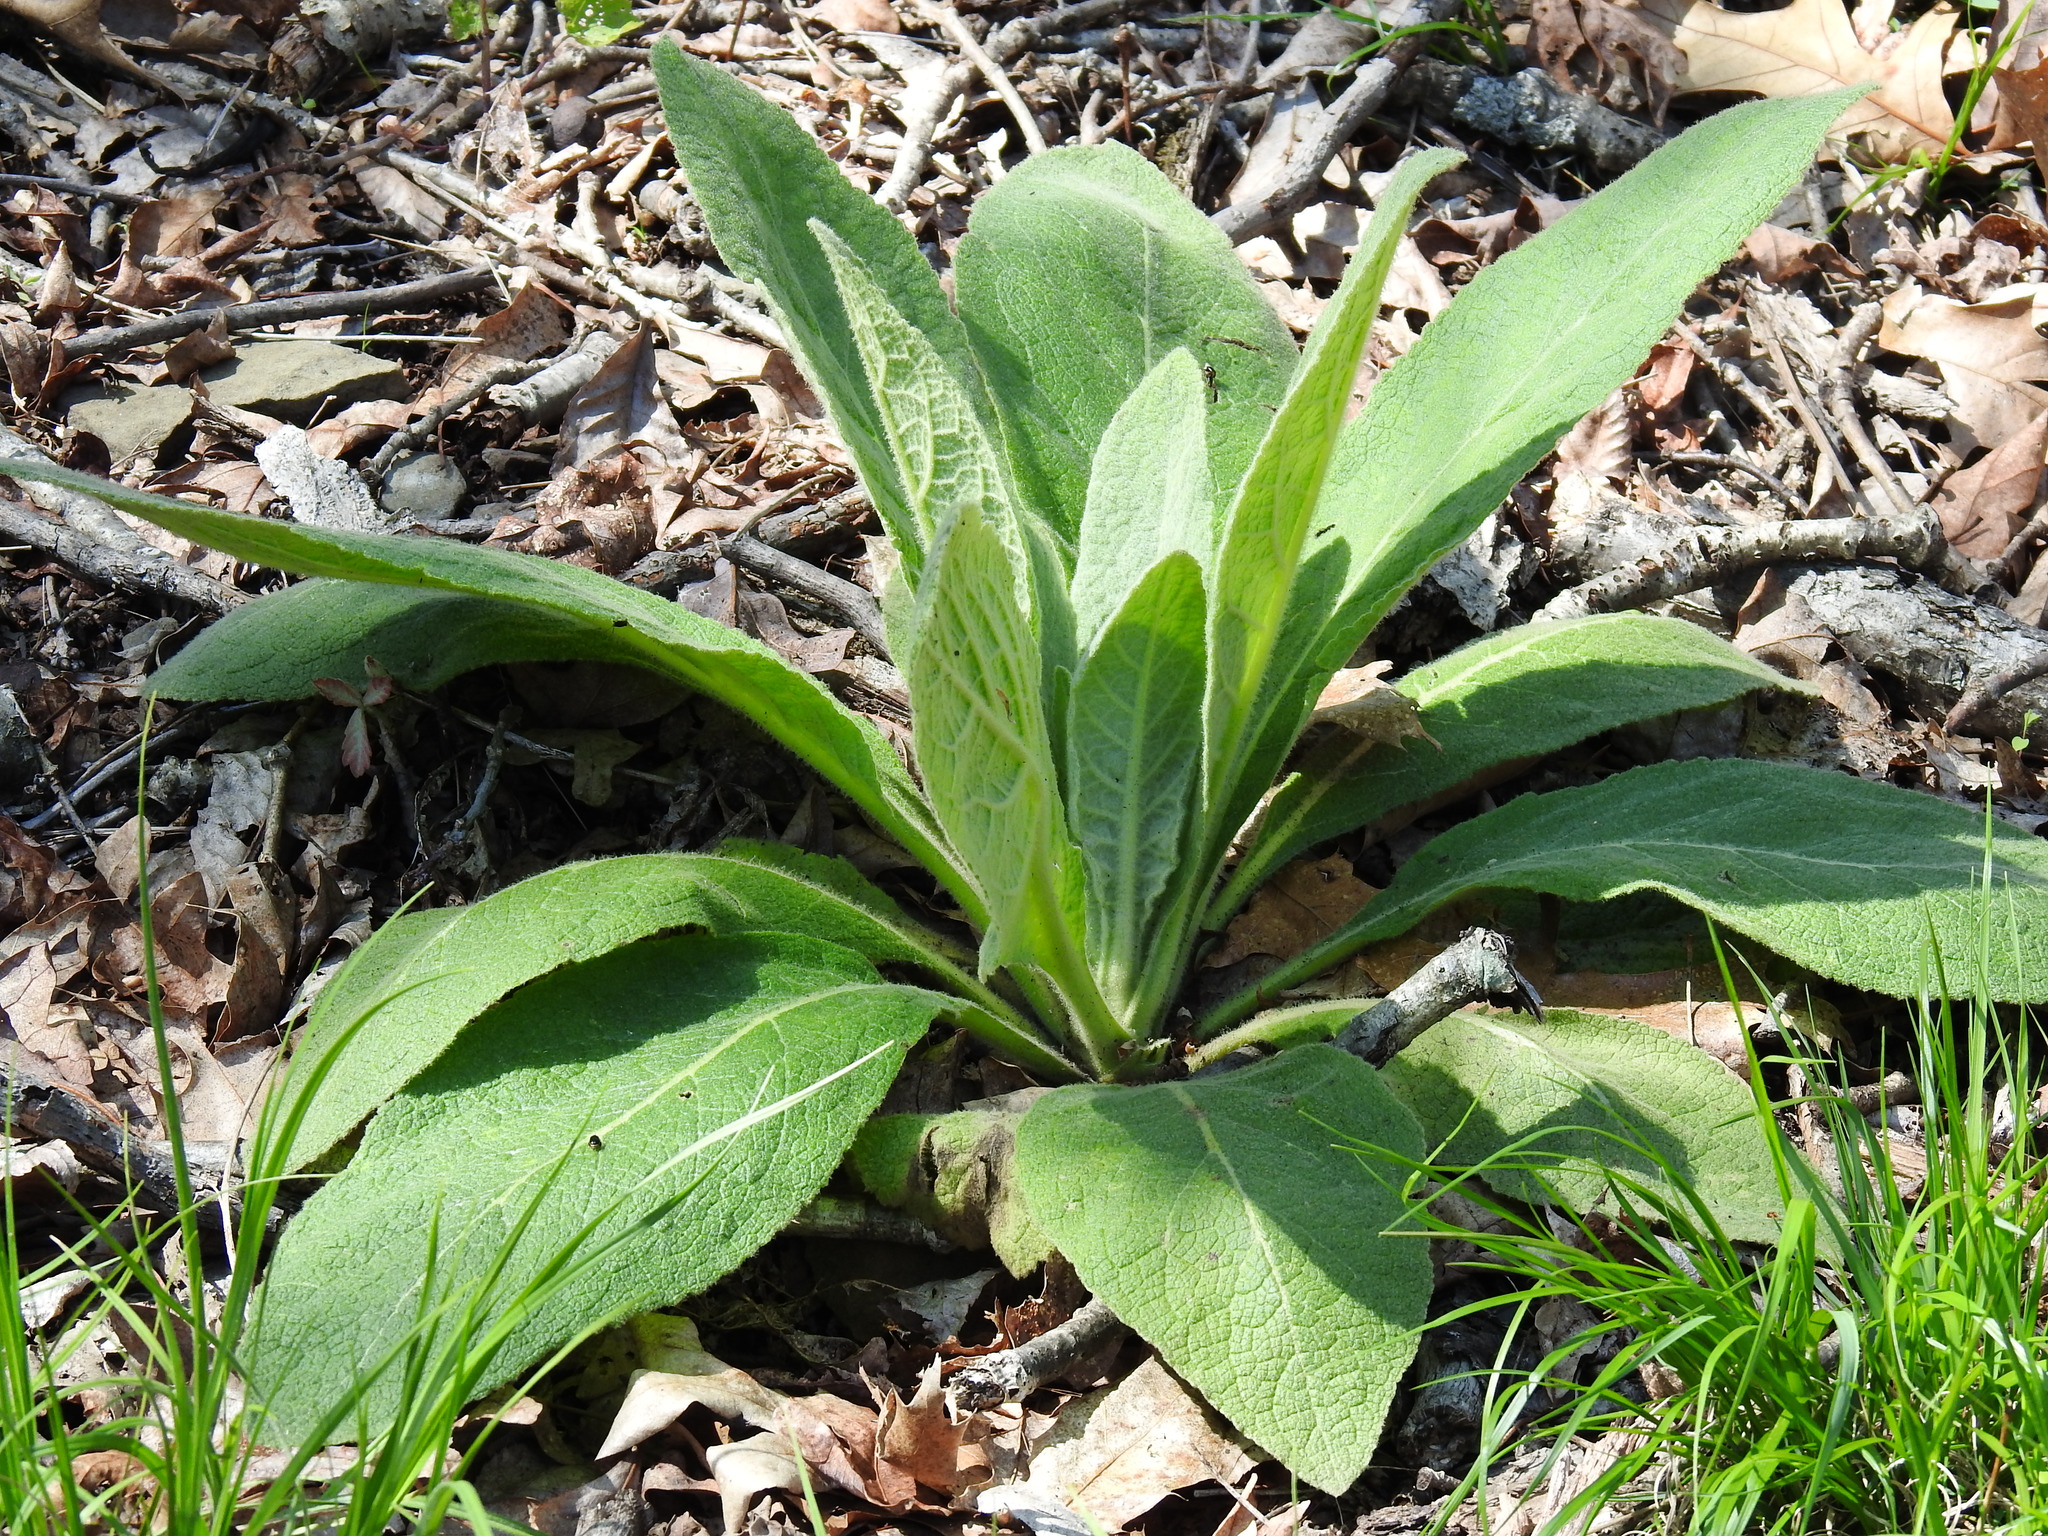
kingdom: Plantae
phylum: Tracheophyta
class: Magnoliopsida
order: Lamiales
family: Scrophulariaceae
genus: Verbascum
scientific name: Verbascum thapsus
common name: Common mullein
